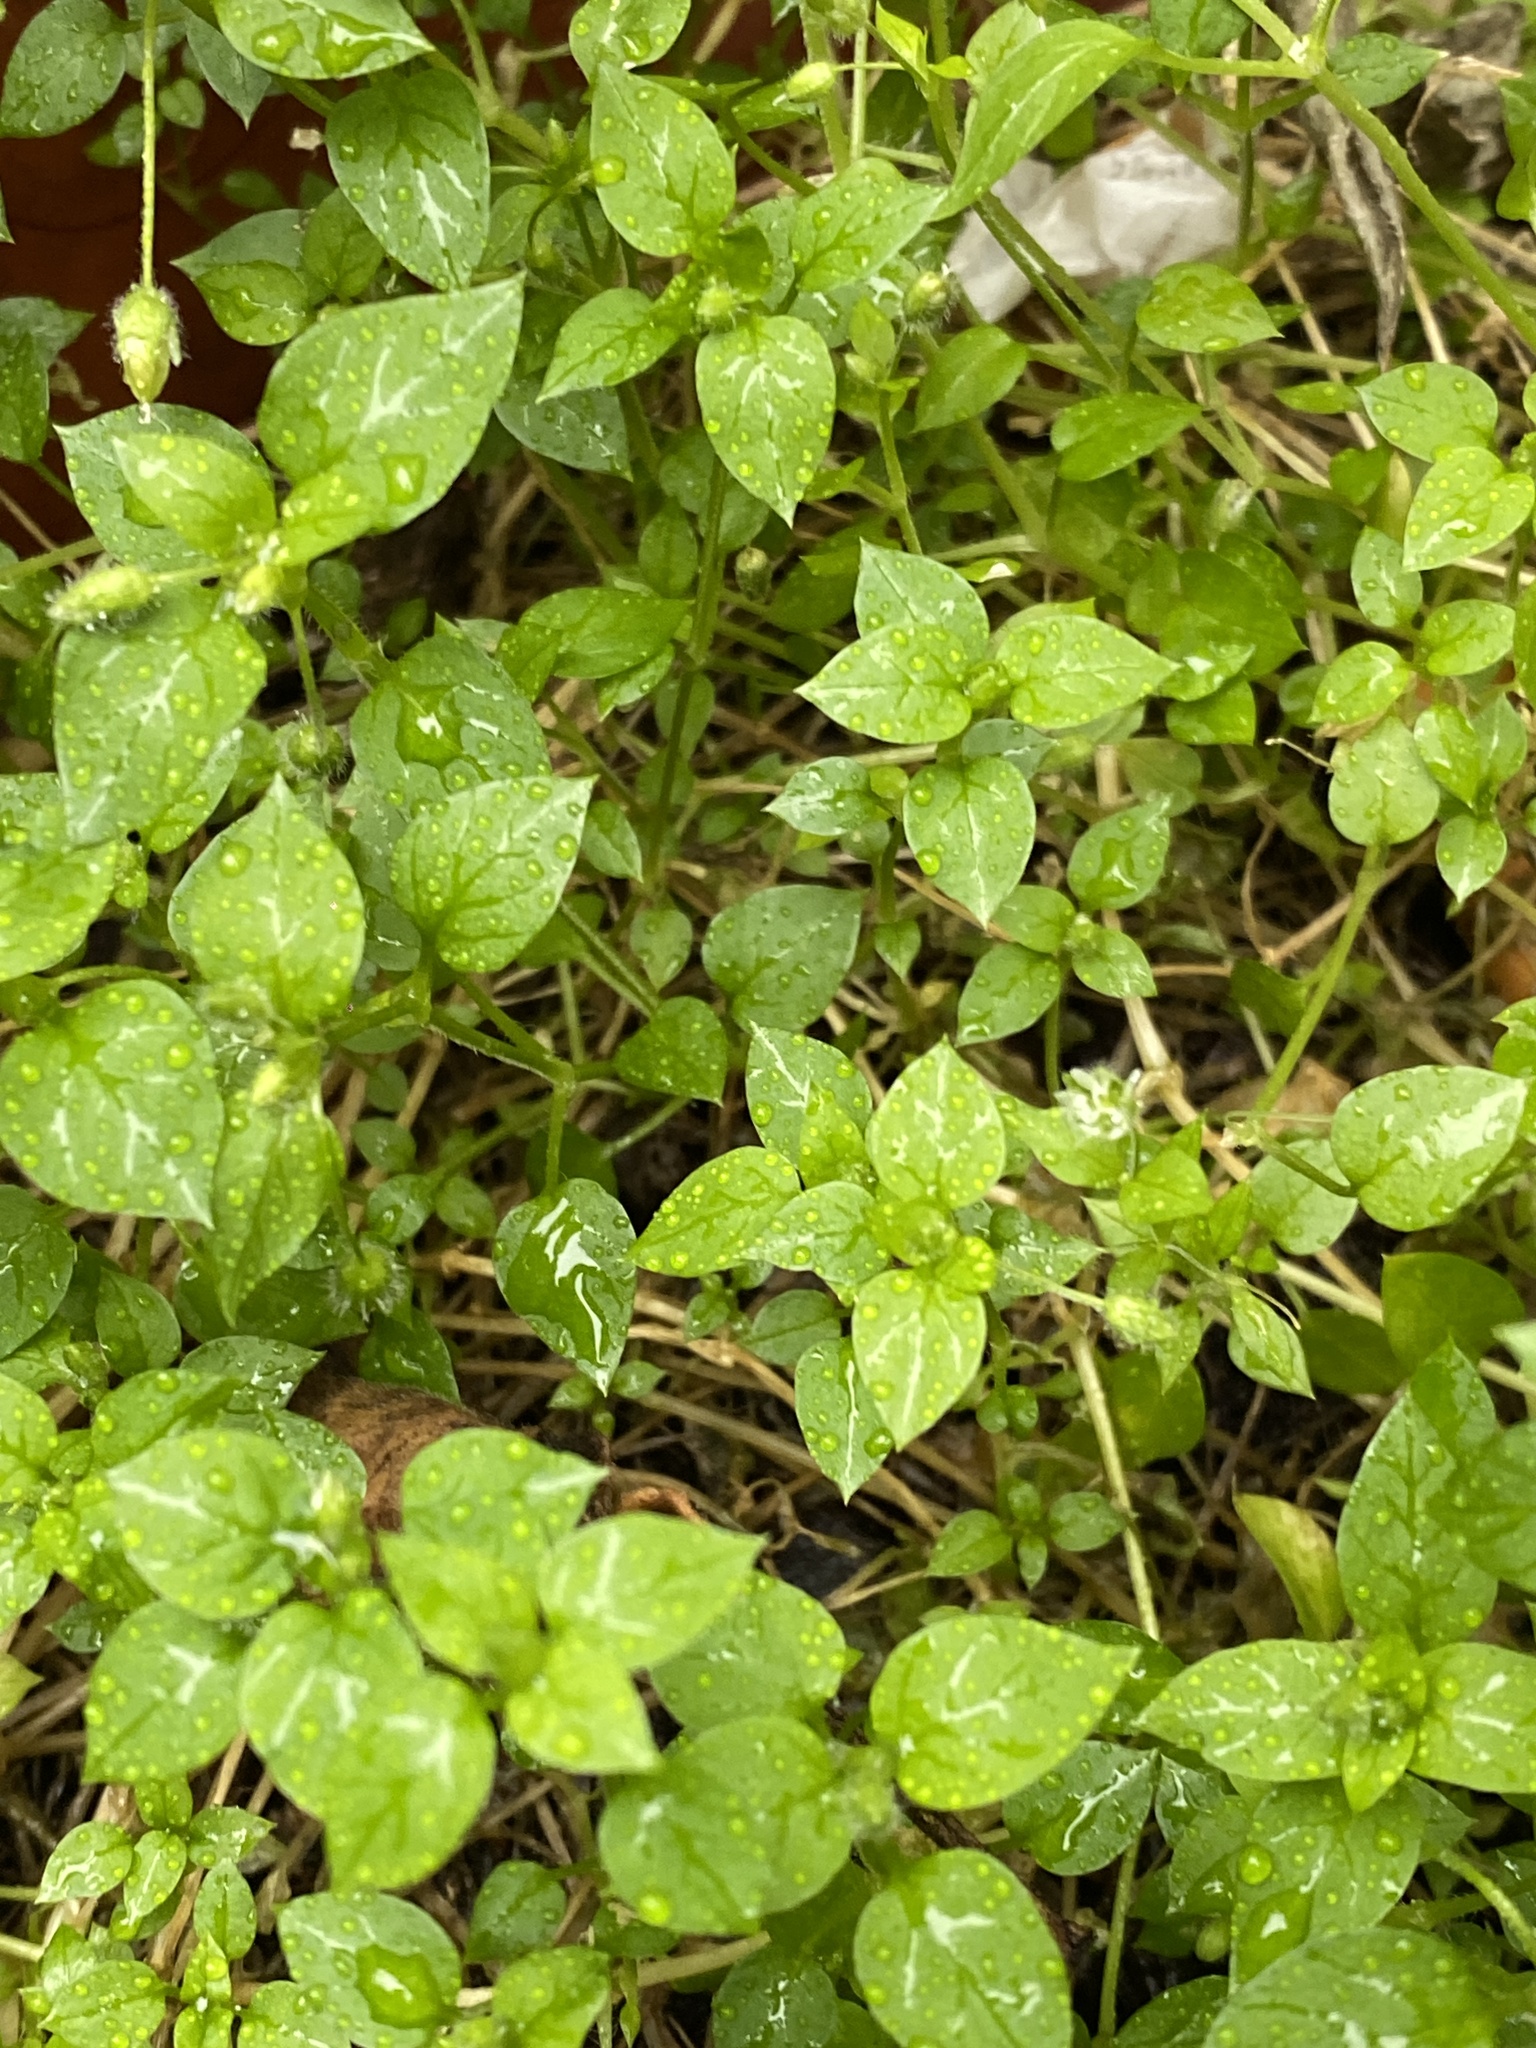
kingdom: Plantae
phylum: Tracheophyta
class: Magnoliopsida
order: Caryophyllales
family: Caryophyllaceae
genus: Stellaria
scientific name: Stellaria media
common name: Common chickweed
